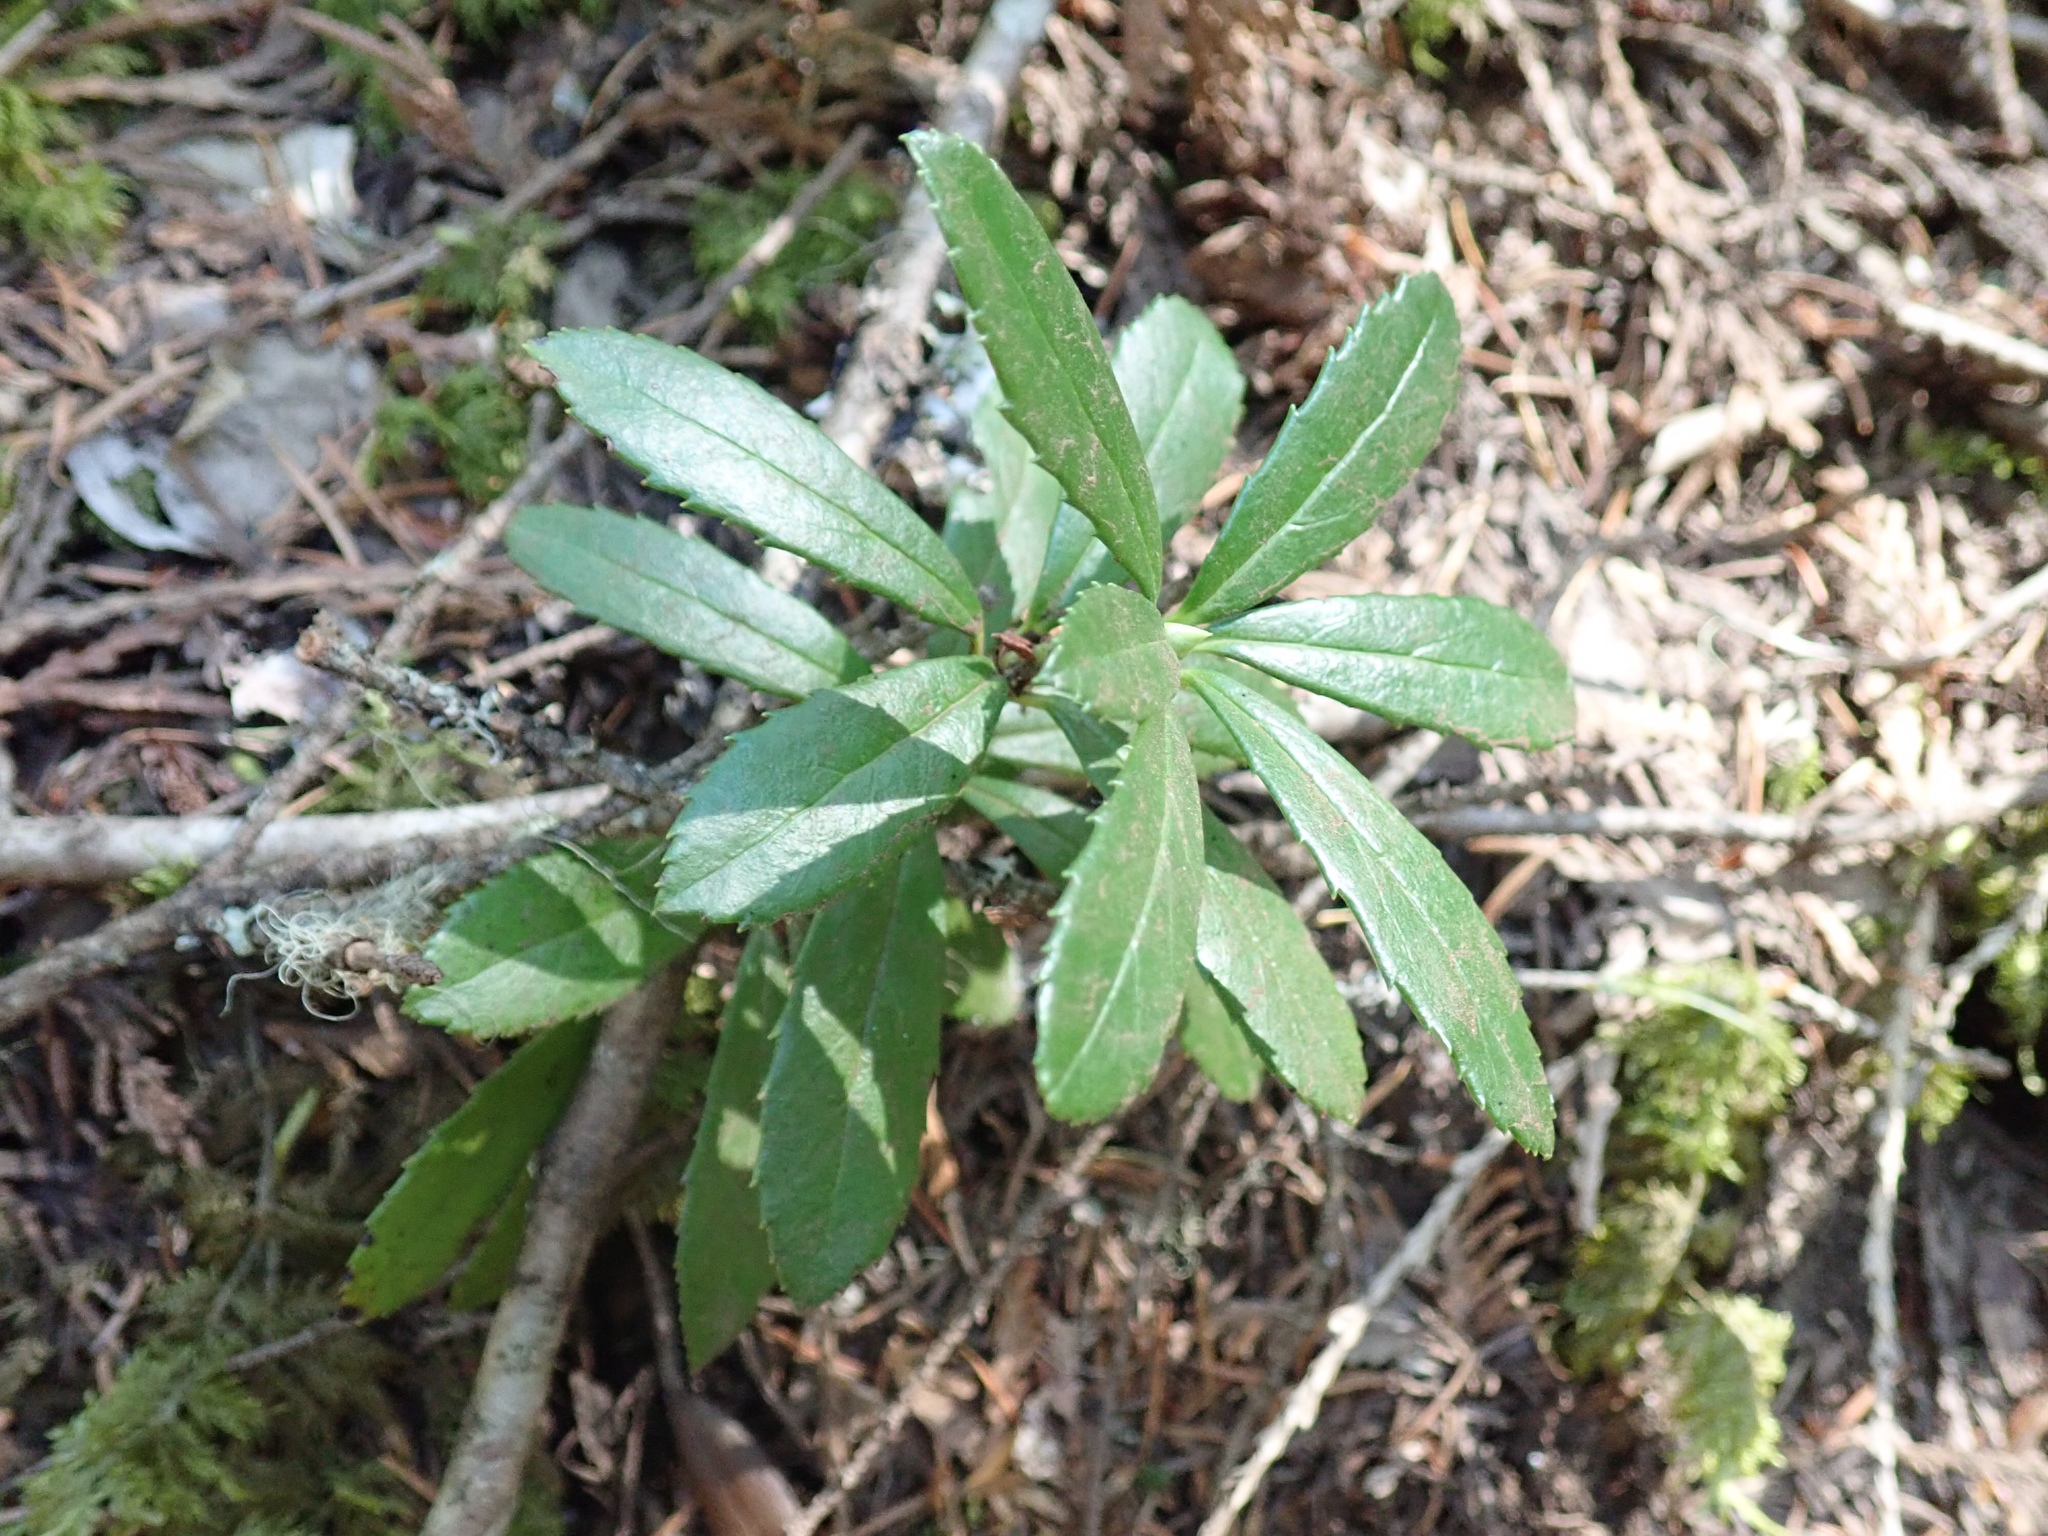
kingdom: Plantae
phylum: Tracheophyta
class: Magnoliopsida
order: Ericales
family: Ericaceae
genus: Chimaphila
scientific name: Chimaphila umbellata
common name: Pipsissewa
